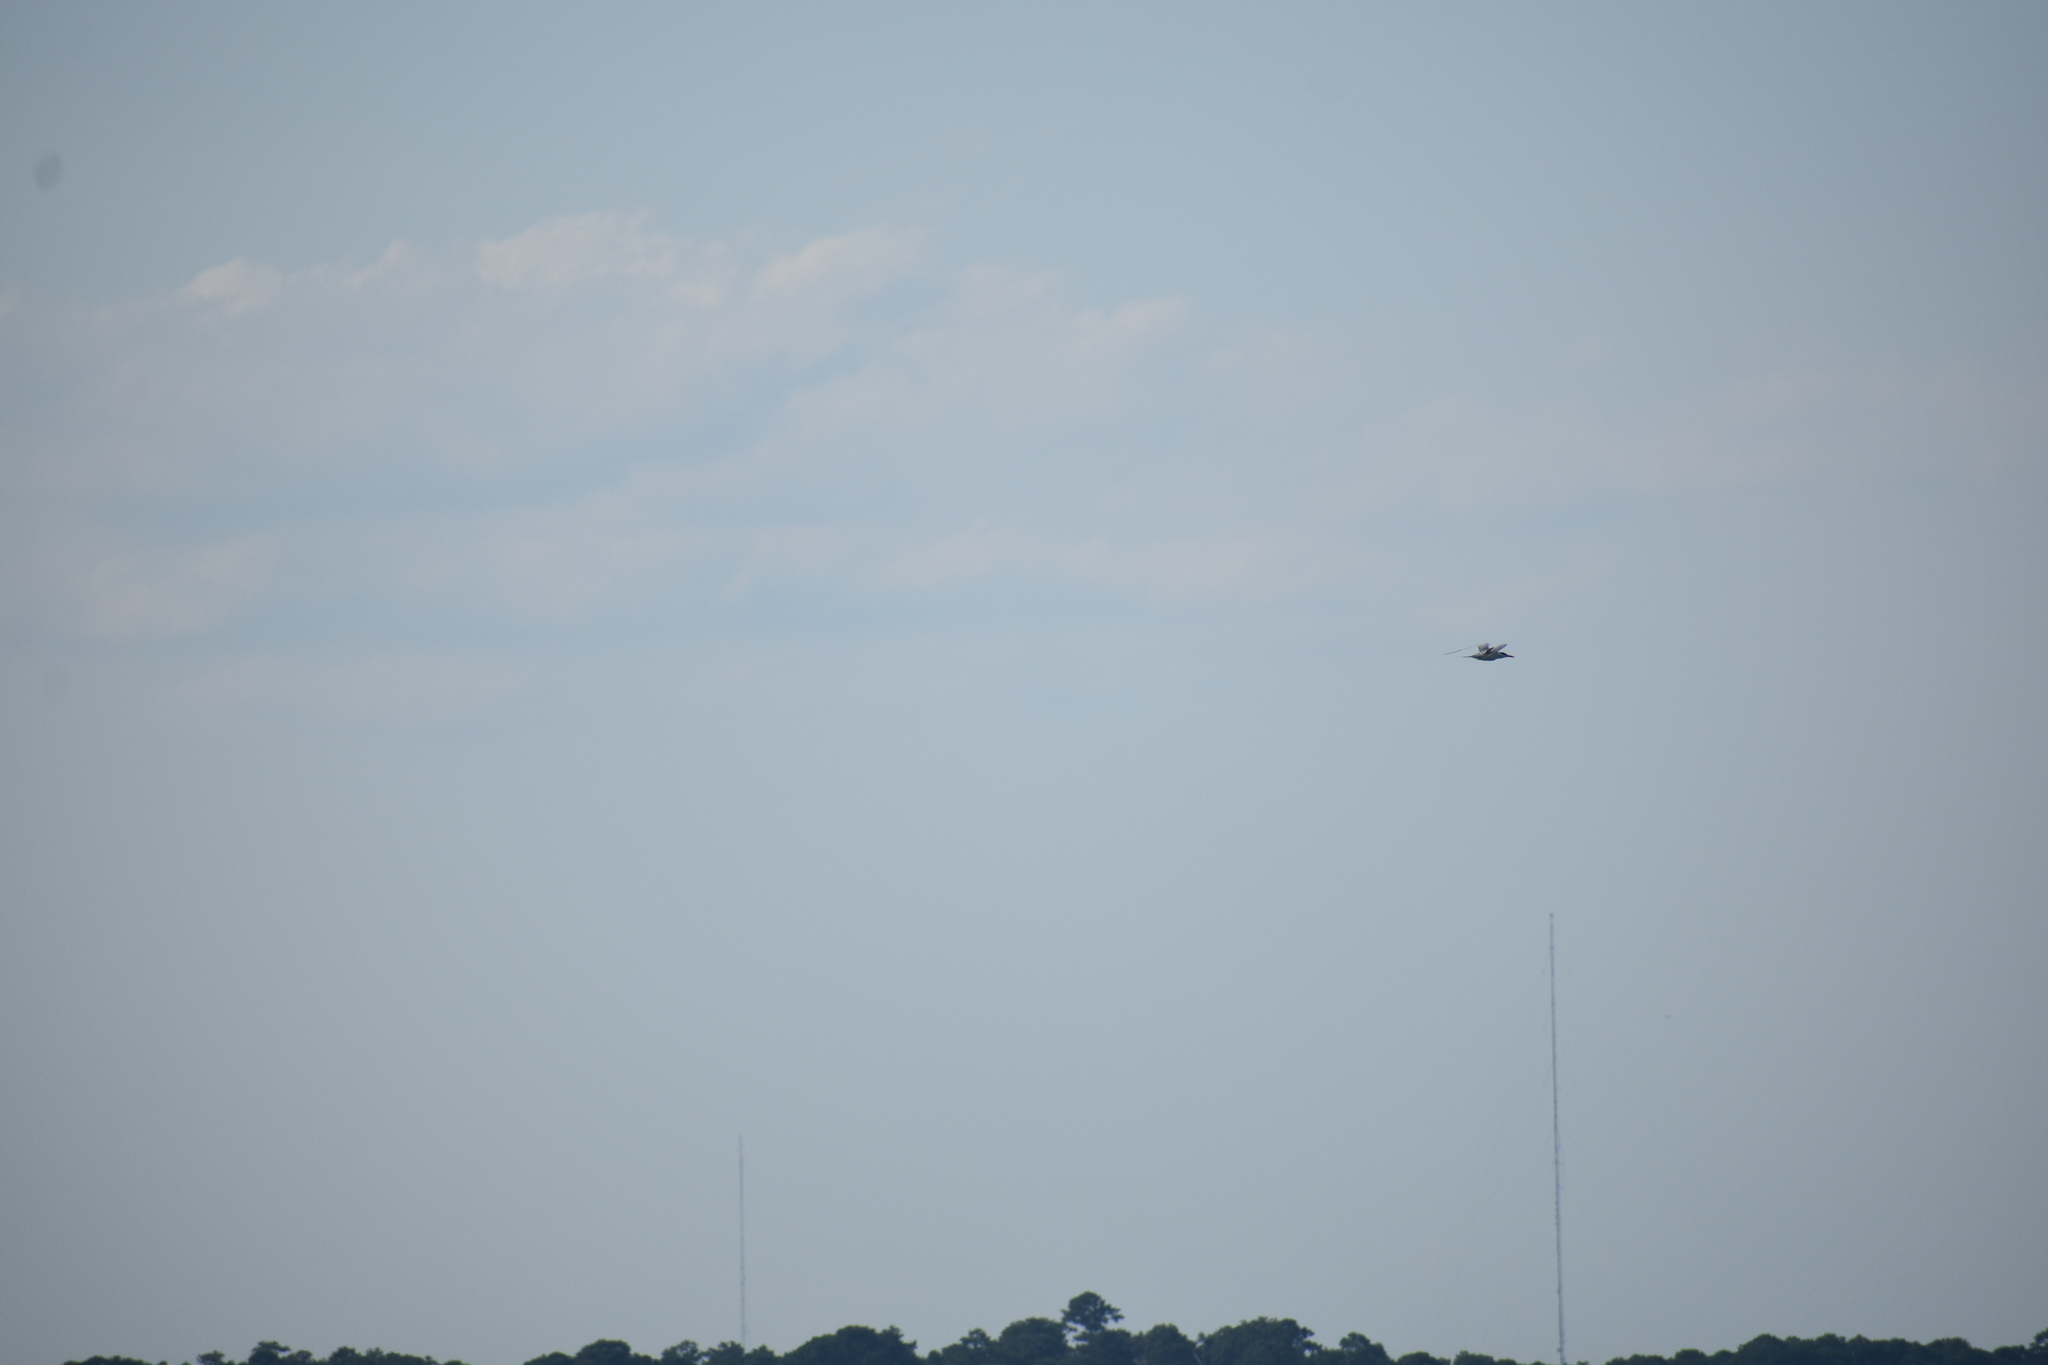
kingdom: Animalia
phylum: Chordata
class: Aves
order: Charadriiformes
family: Laridae
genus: Thalasseus
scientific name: Thalasseus maximus
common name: Royal tern
